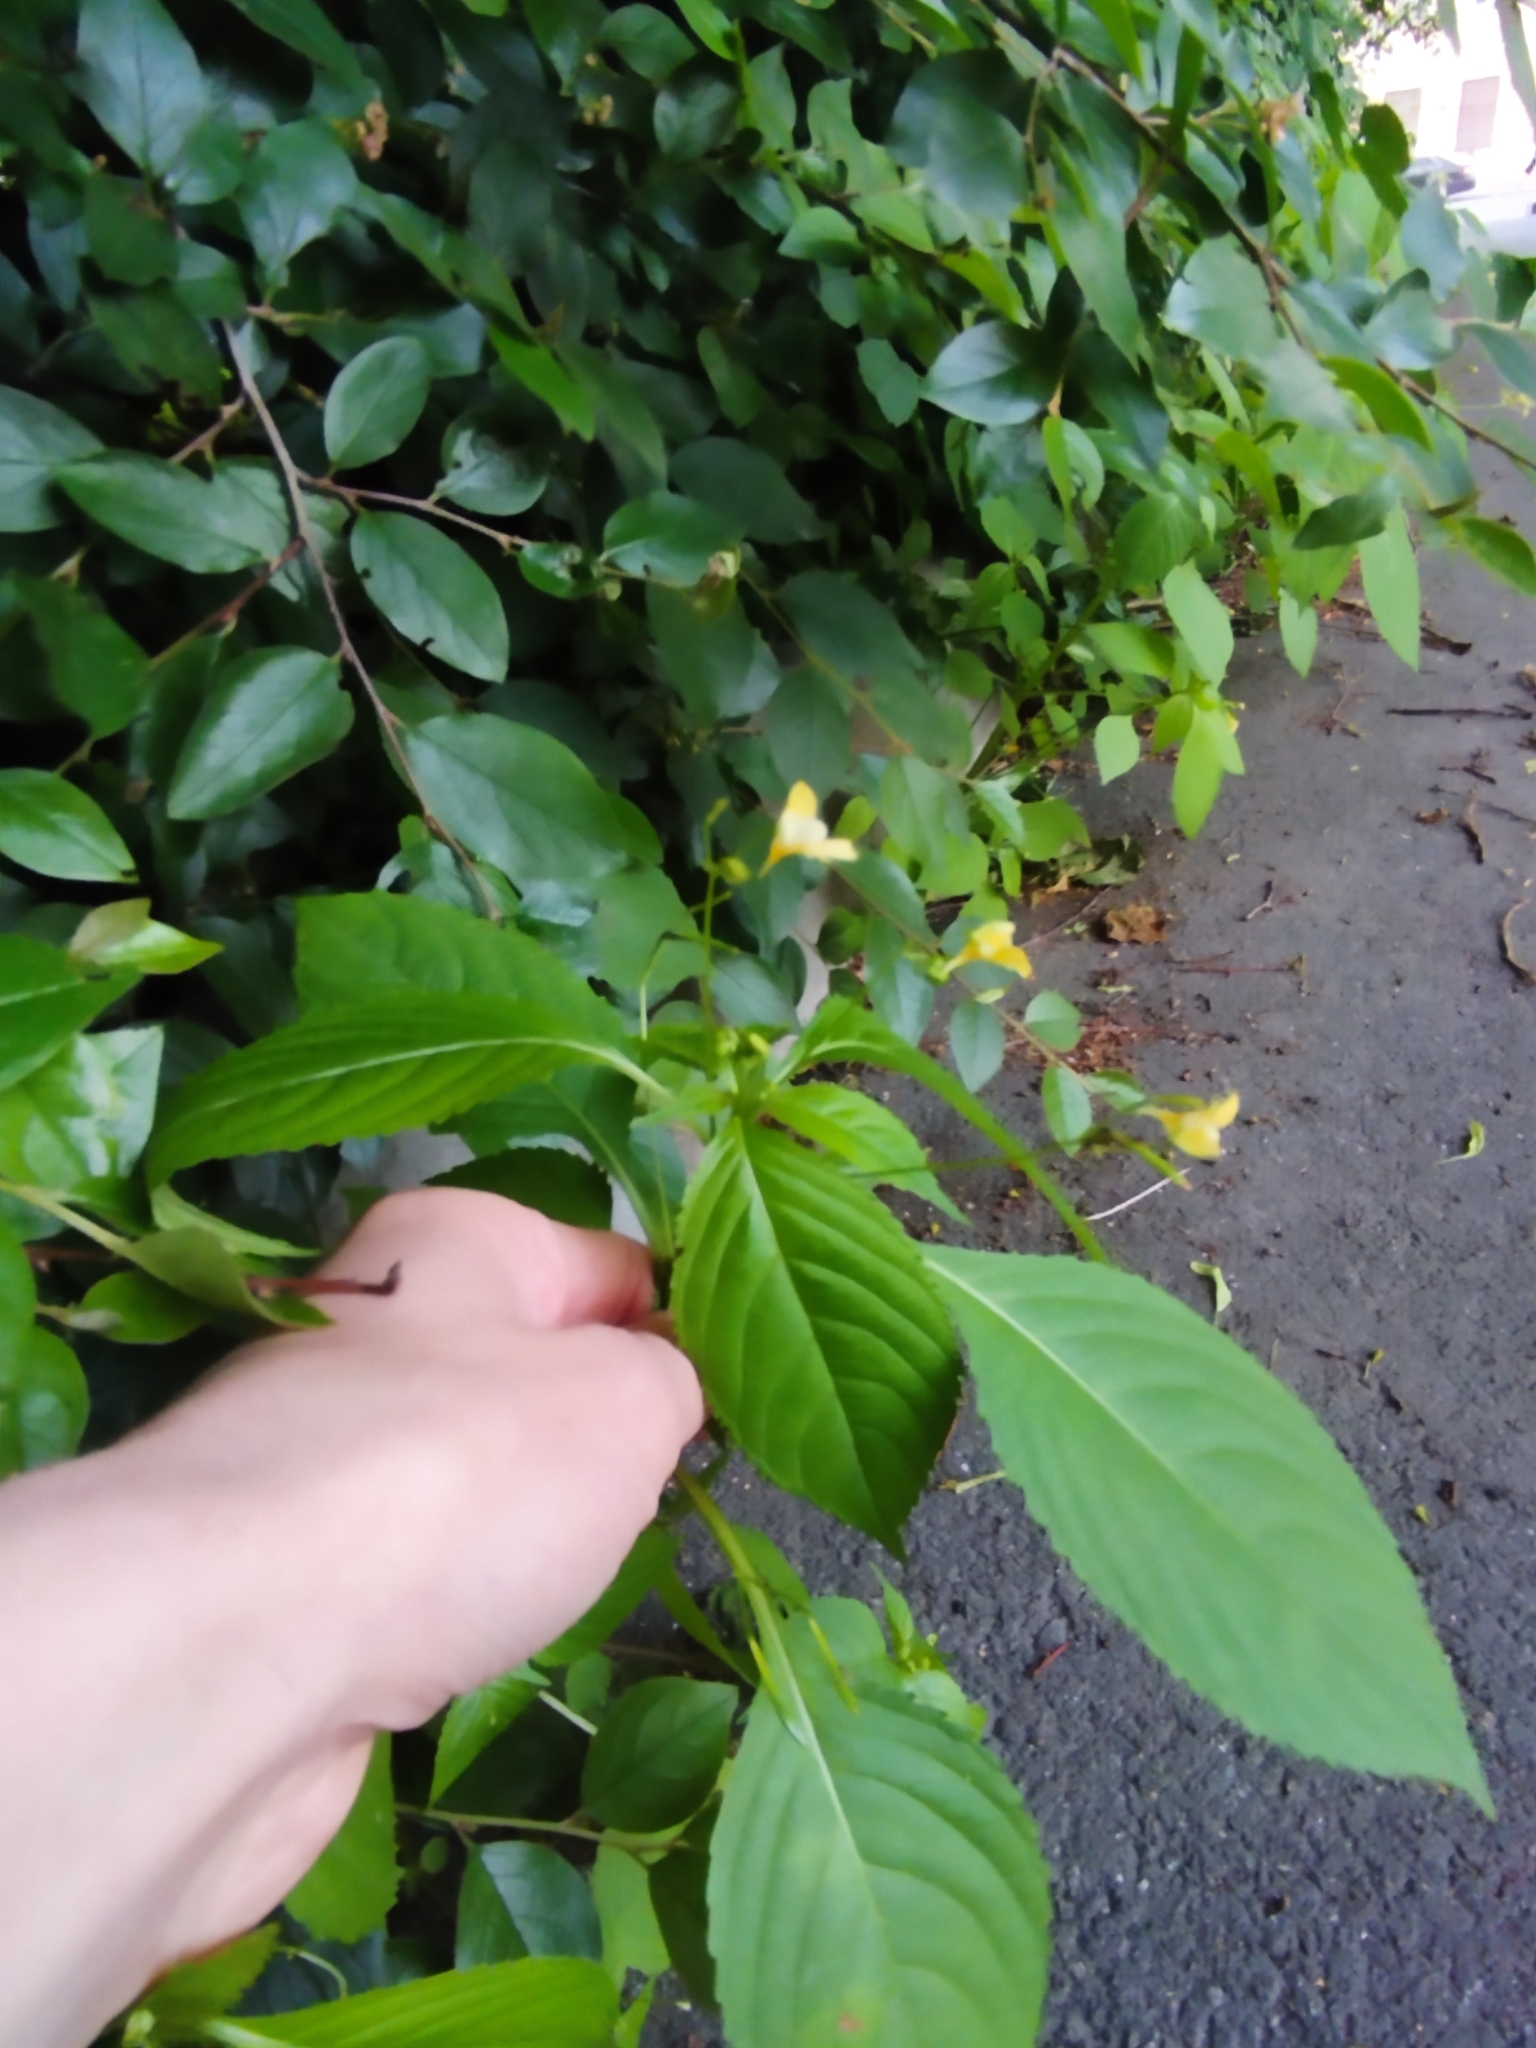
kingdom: Plantae
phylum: Tracheophyta
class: Magnoliopsida
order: Ericales
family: Balsaminaceae
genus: Impatiens
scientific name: Impatiens parviflora
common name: Small balsam
